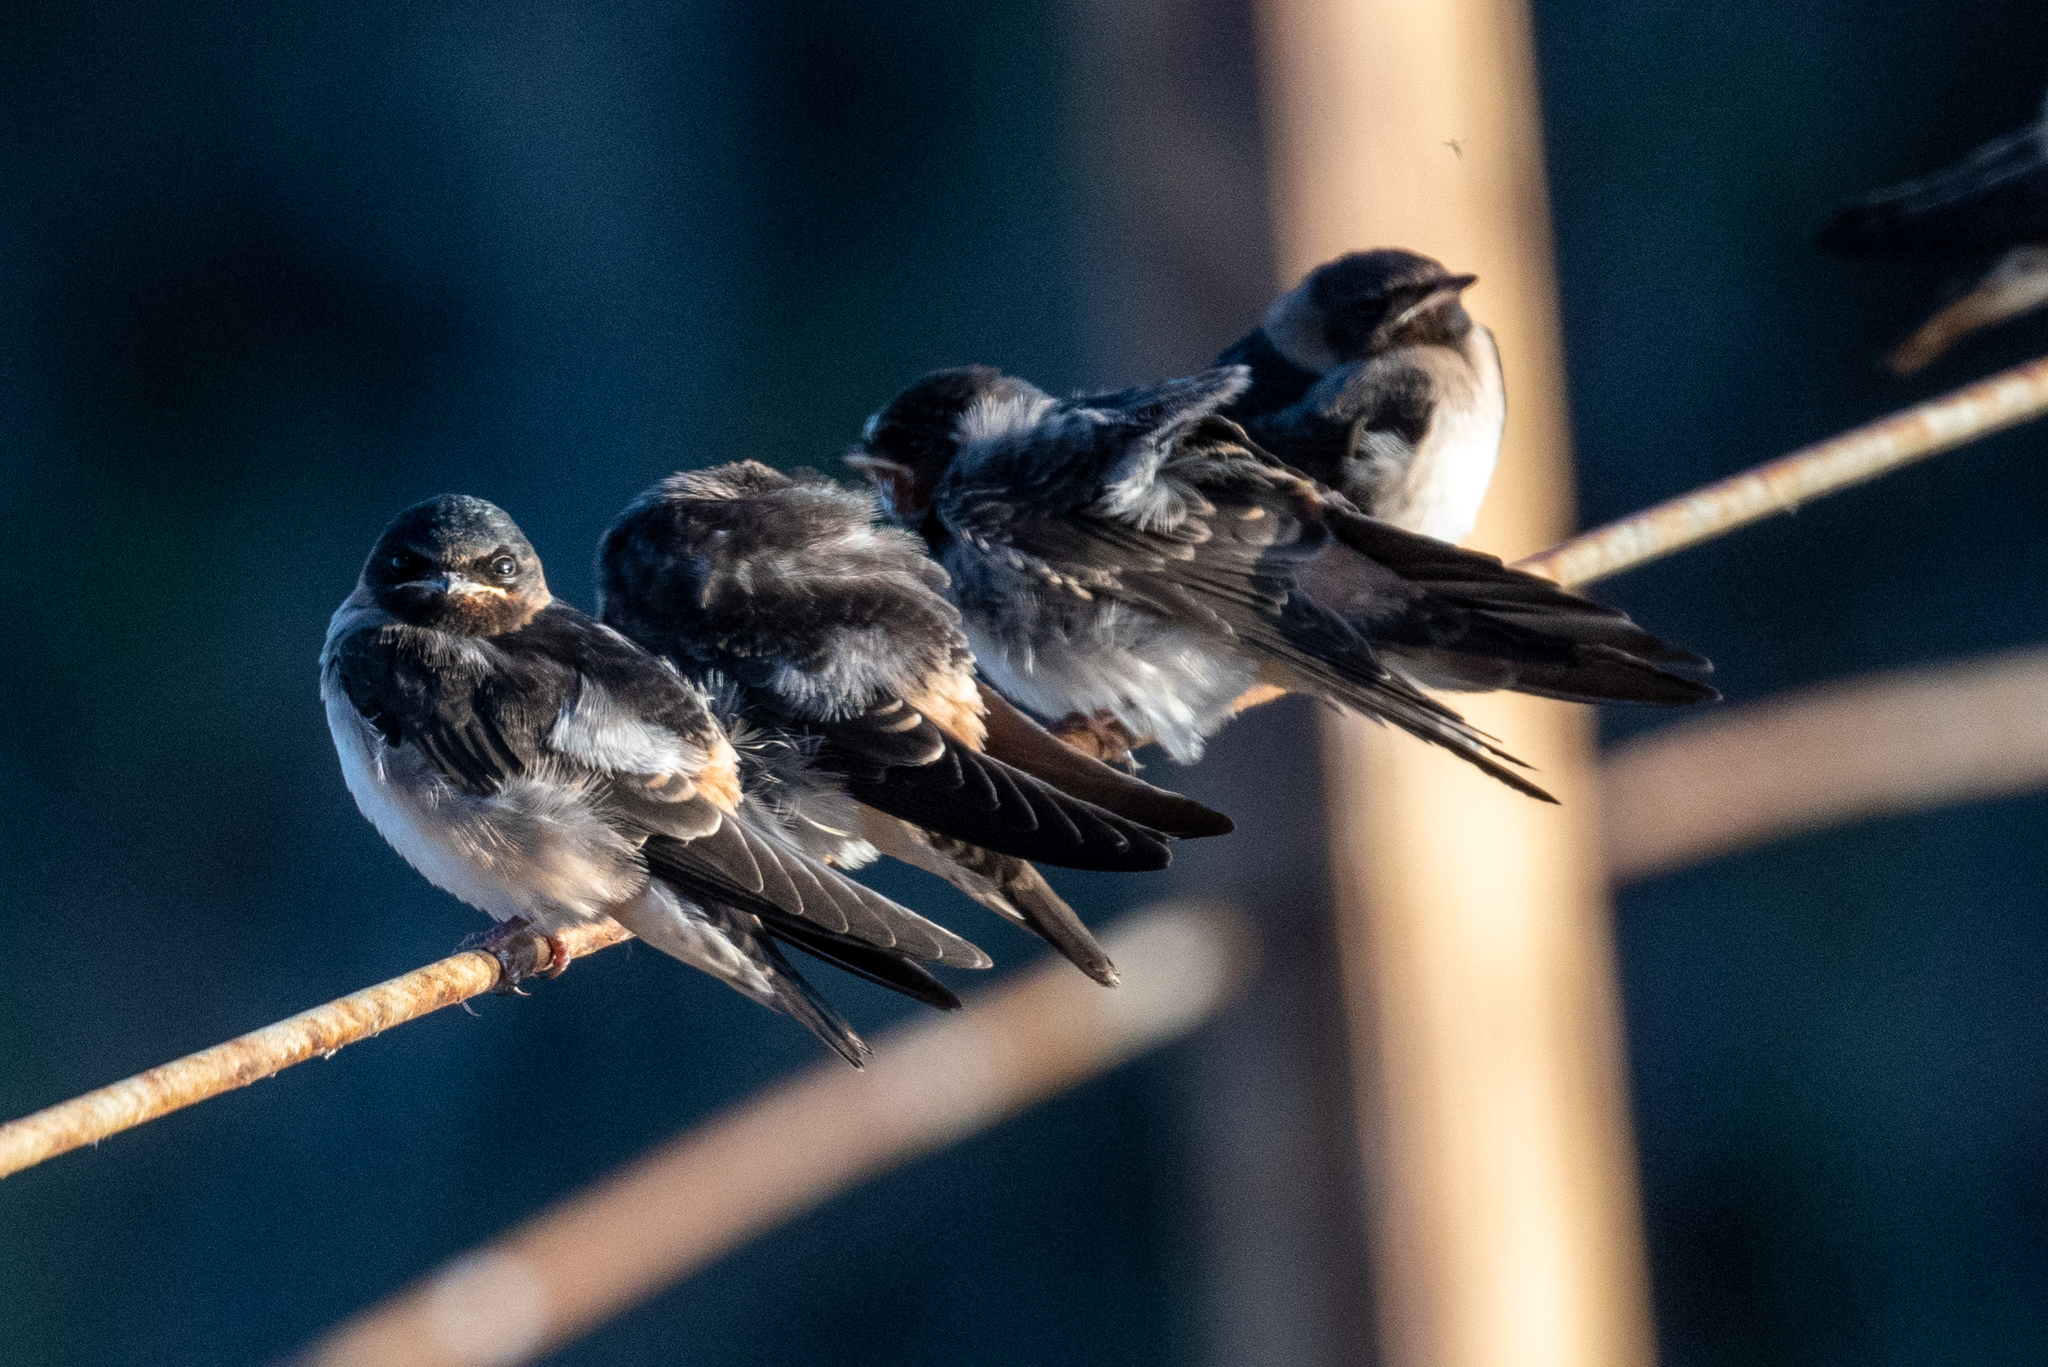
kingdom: Animalia
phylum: Chordata
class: Aves
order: Passeriformes
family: Hirundinidae
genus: Petrochelidon
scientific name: Petrochelidon pyrrhonota
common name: American cliff swallow
